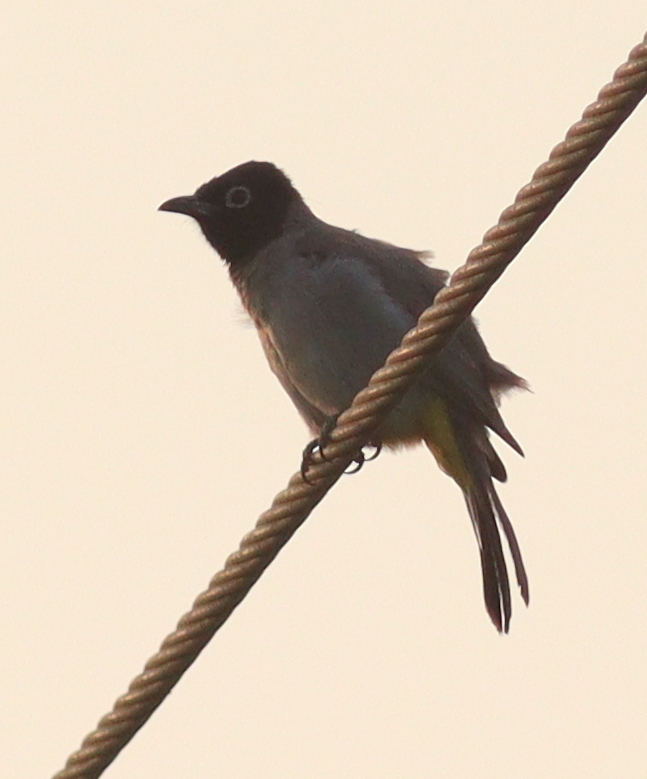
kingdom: Animalia
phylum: Chordata
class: Aves
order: Passeriformes
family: Pycnonotidae
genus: Pycnonotus
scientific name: Pycnonotus xanthopygos
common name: White-spectacled bulbul
